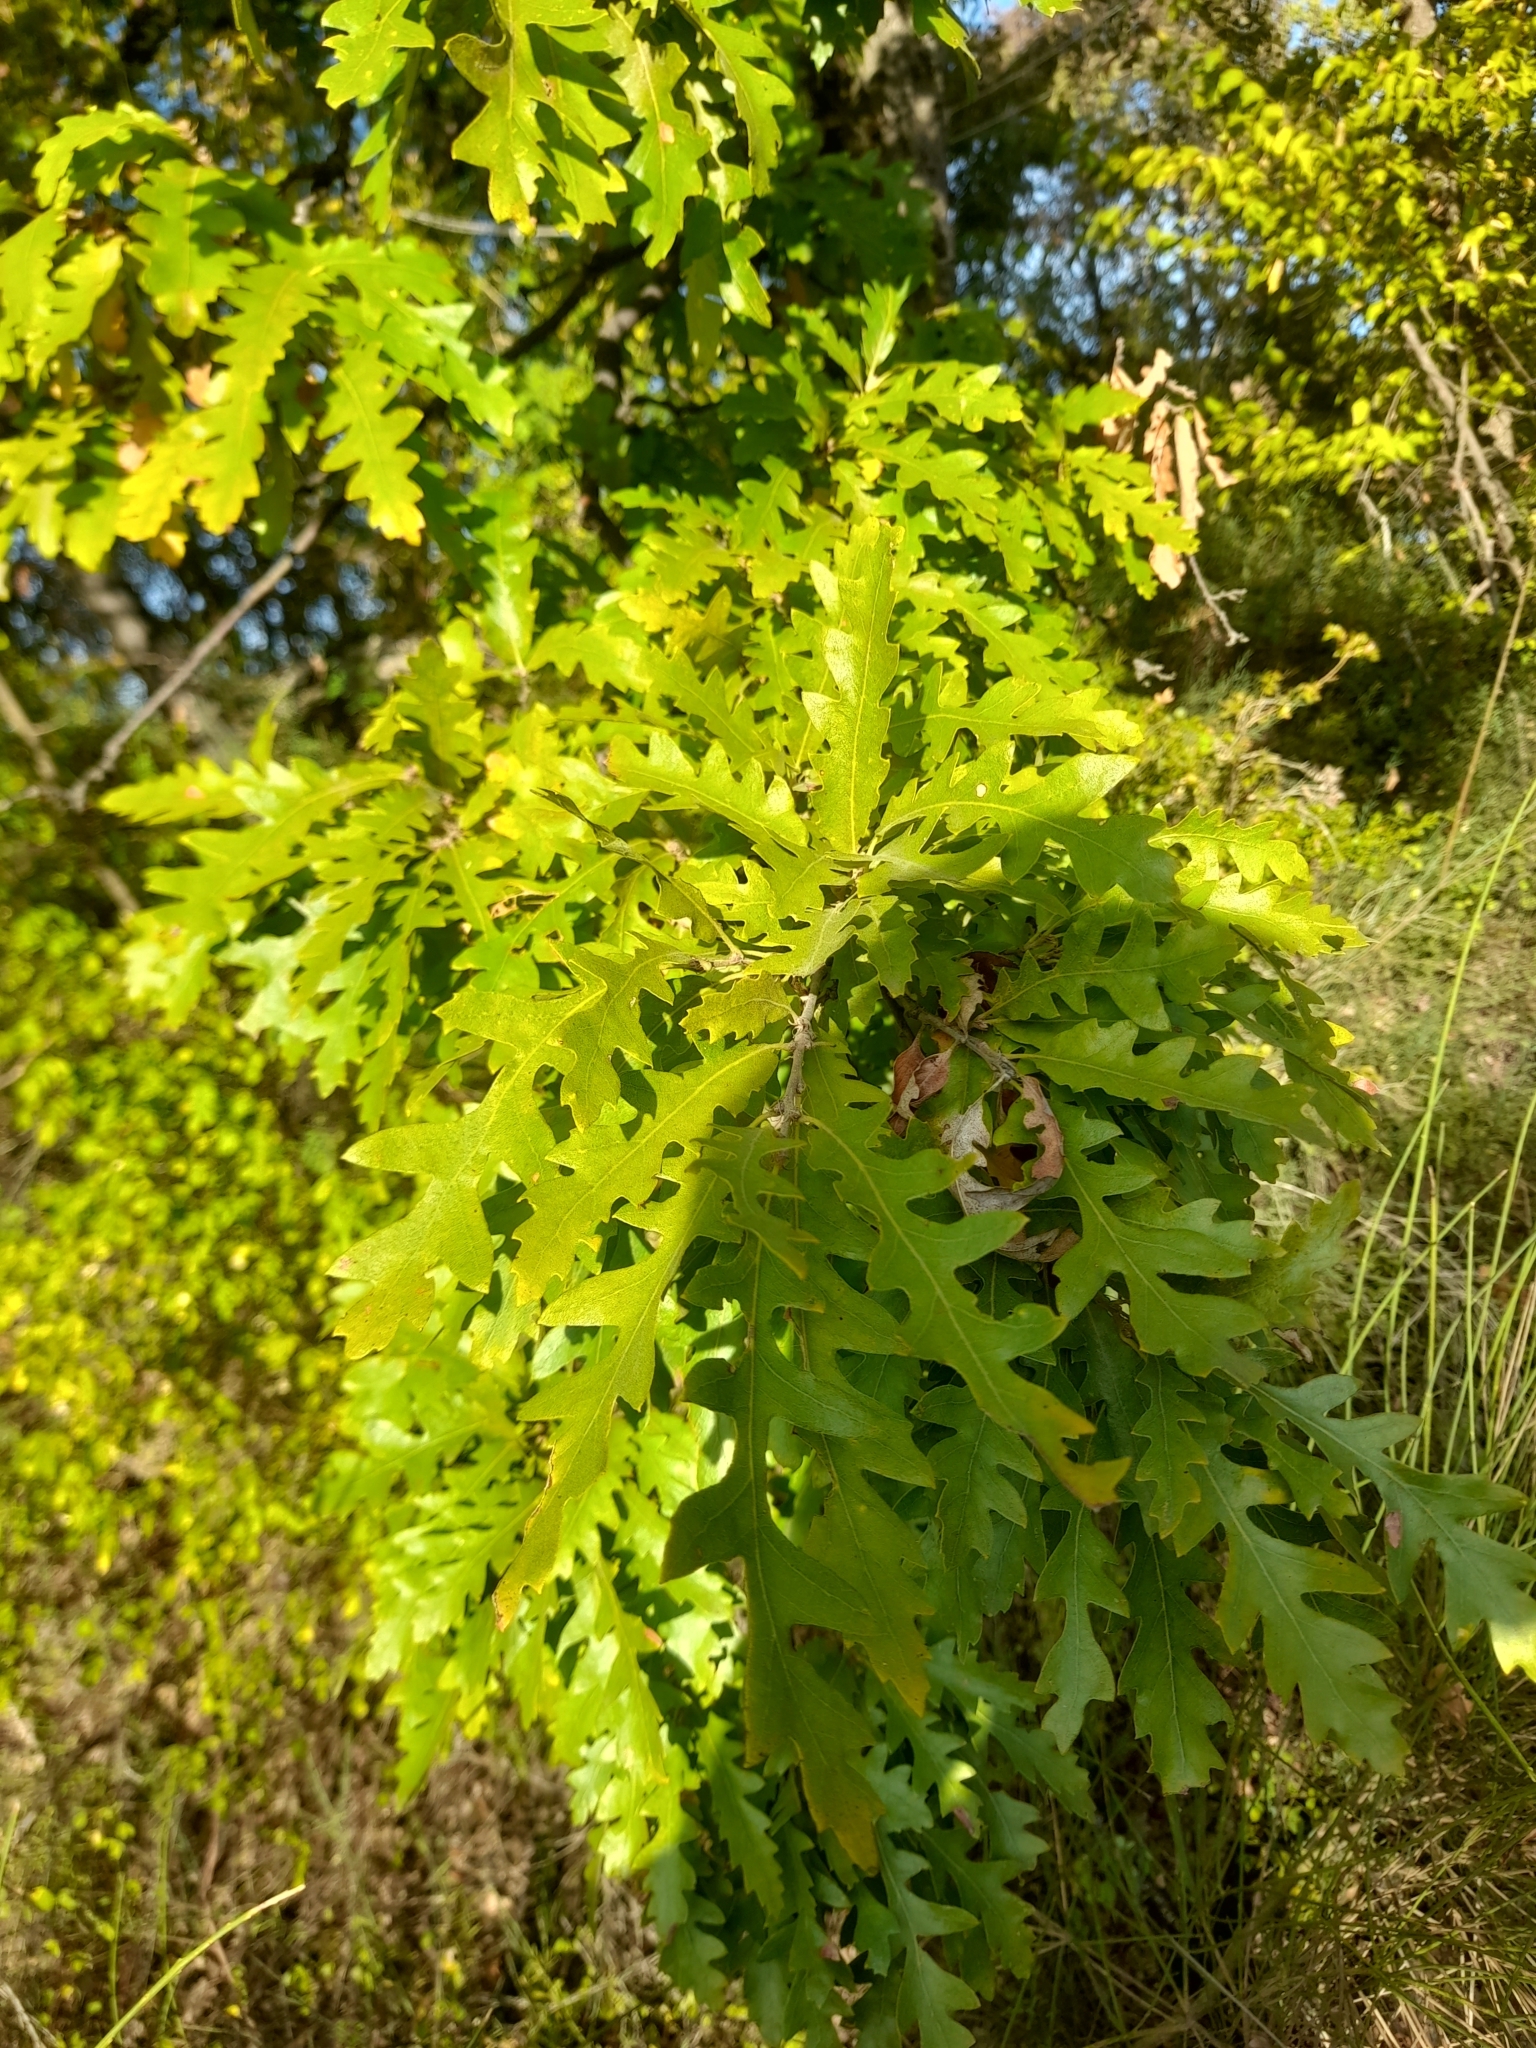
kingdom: Plantae
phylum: Tracheophyta
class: Magnoliopsida
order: Fagales
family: Fagaceae
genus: Quercus
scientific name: Quercus cerris
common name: Turkey oak
